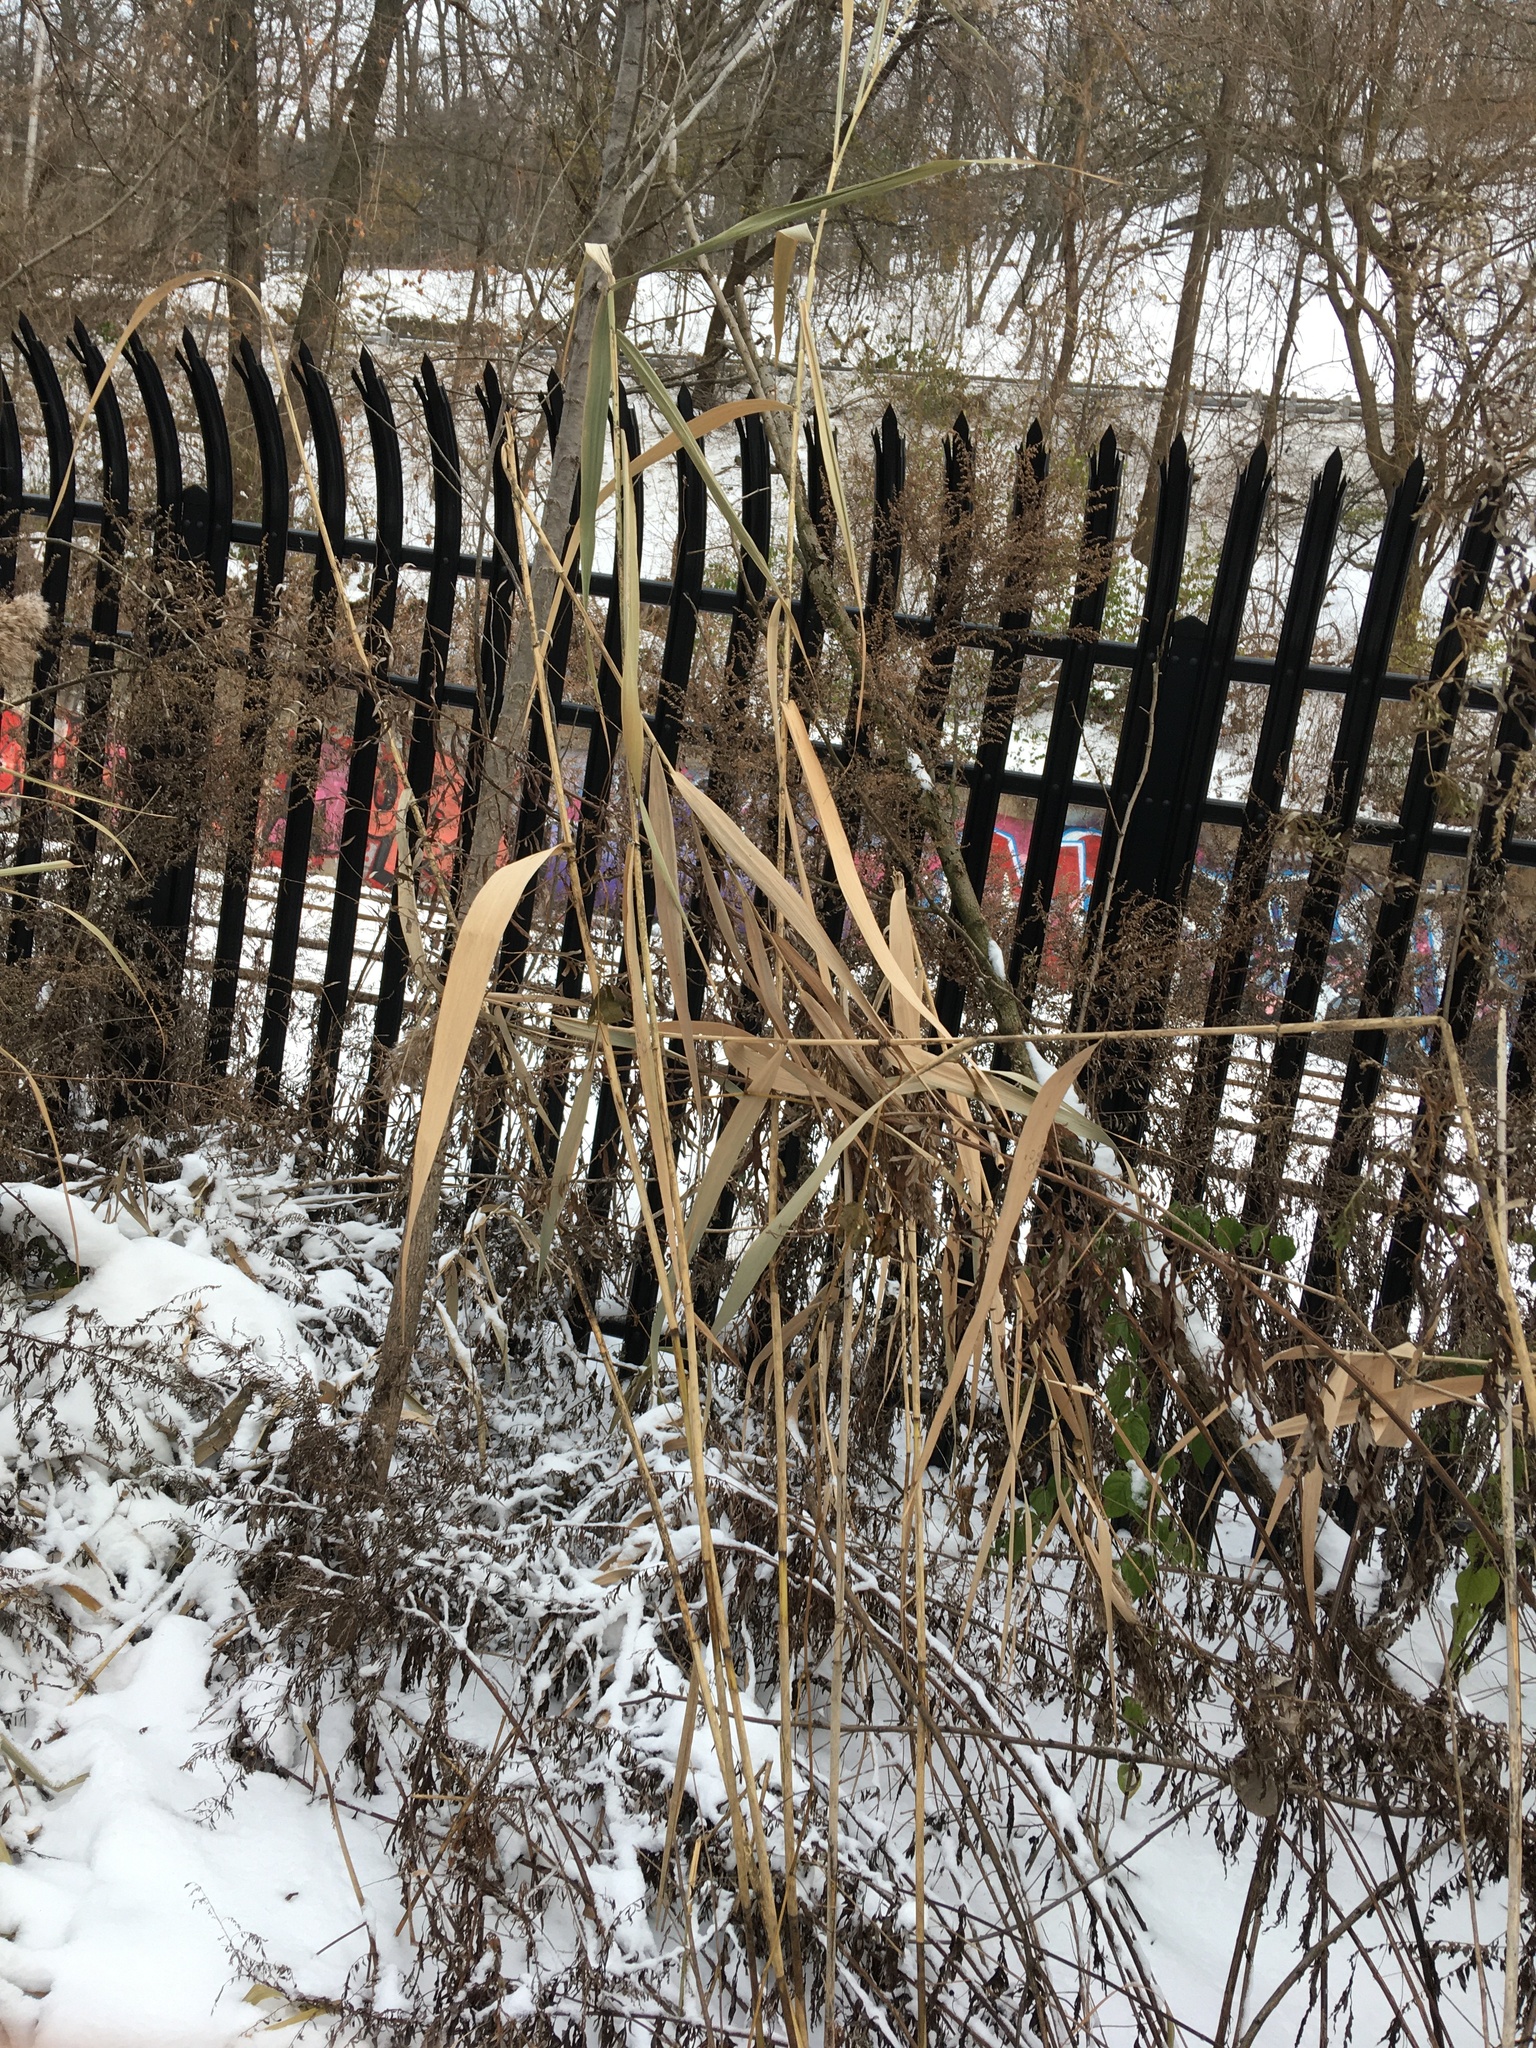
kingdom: Plantae
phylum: Tracheophyta
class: Liliopsida
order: Poales
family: Poaceae
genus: Phragmites
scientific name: Phragmites australis
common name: Common reed
